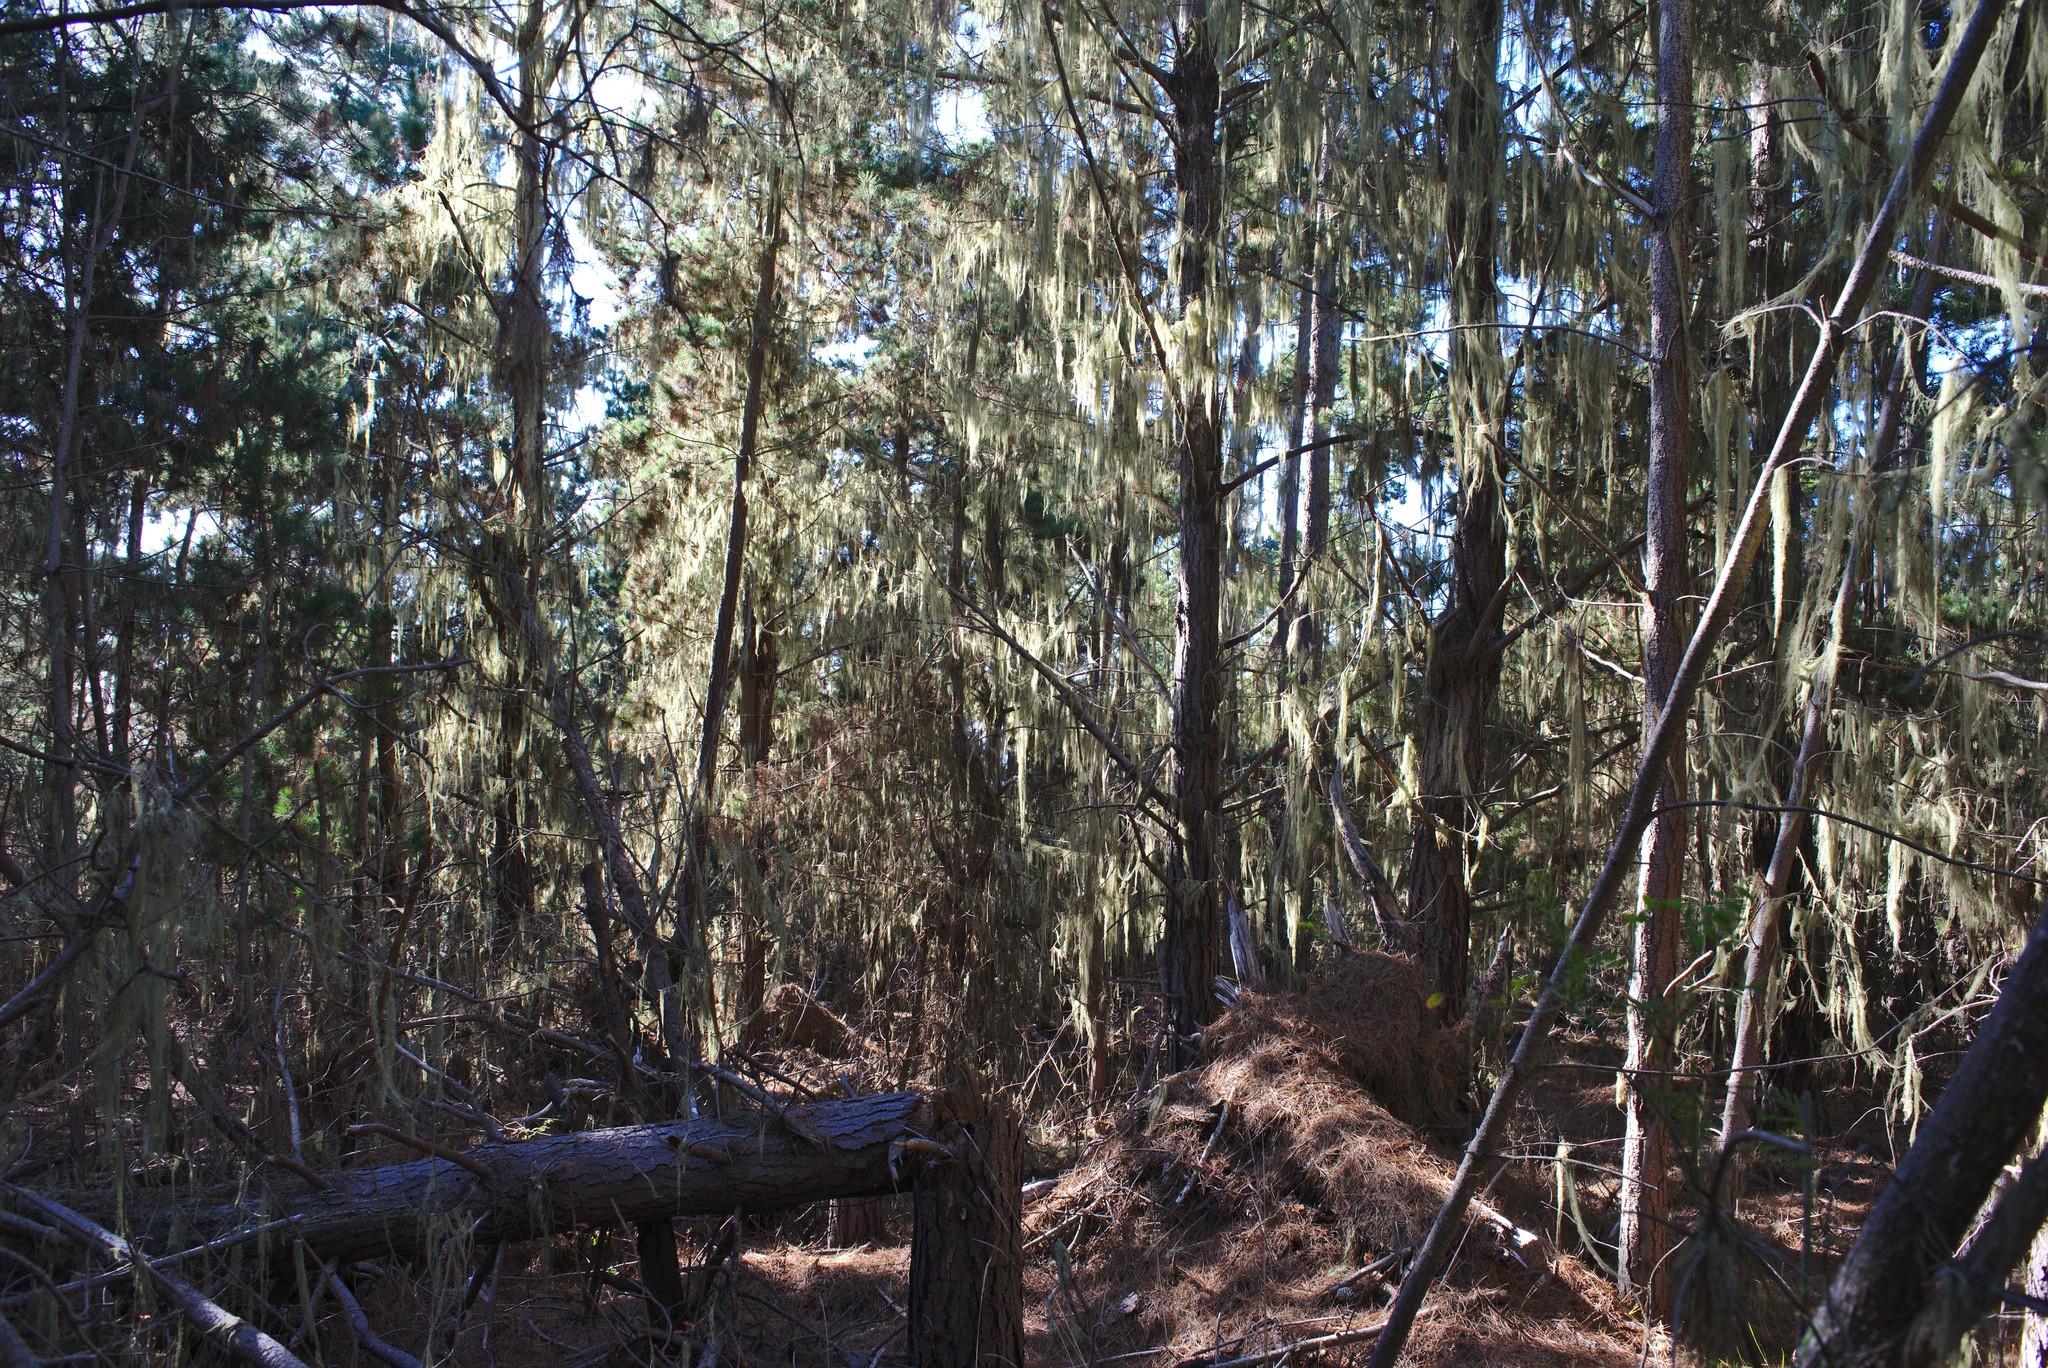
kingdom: Fungi
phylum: Ascomycota
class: Lecanoromycetes
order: Lecanorales
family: Ramalinaceae
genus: Ramalina
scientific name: Ramalina menziesii
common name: Lace lichen
